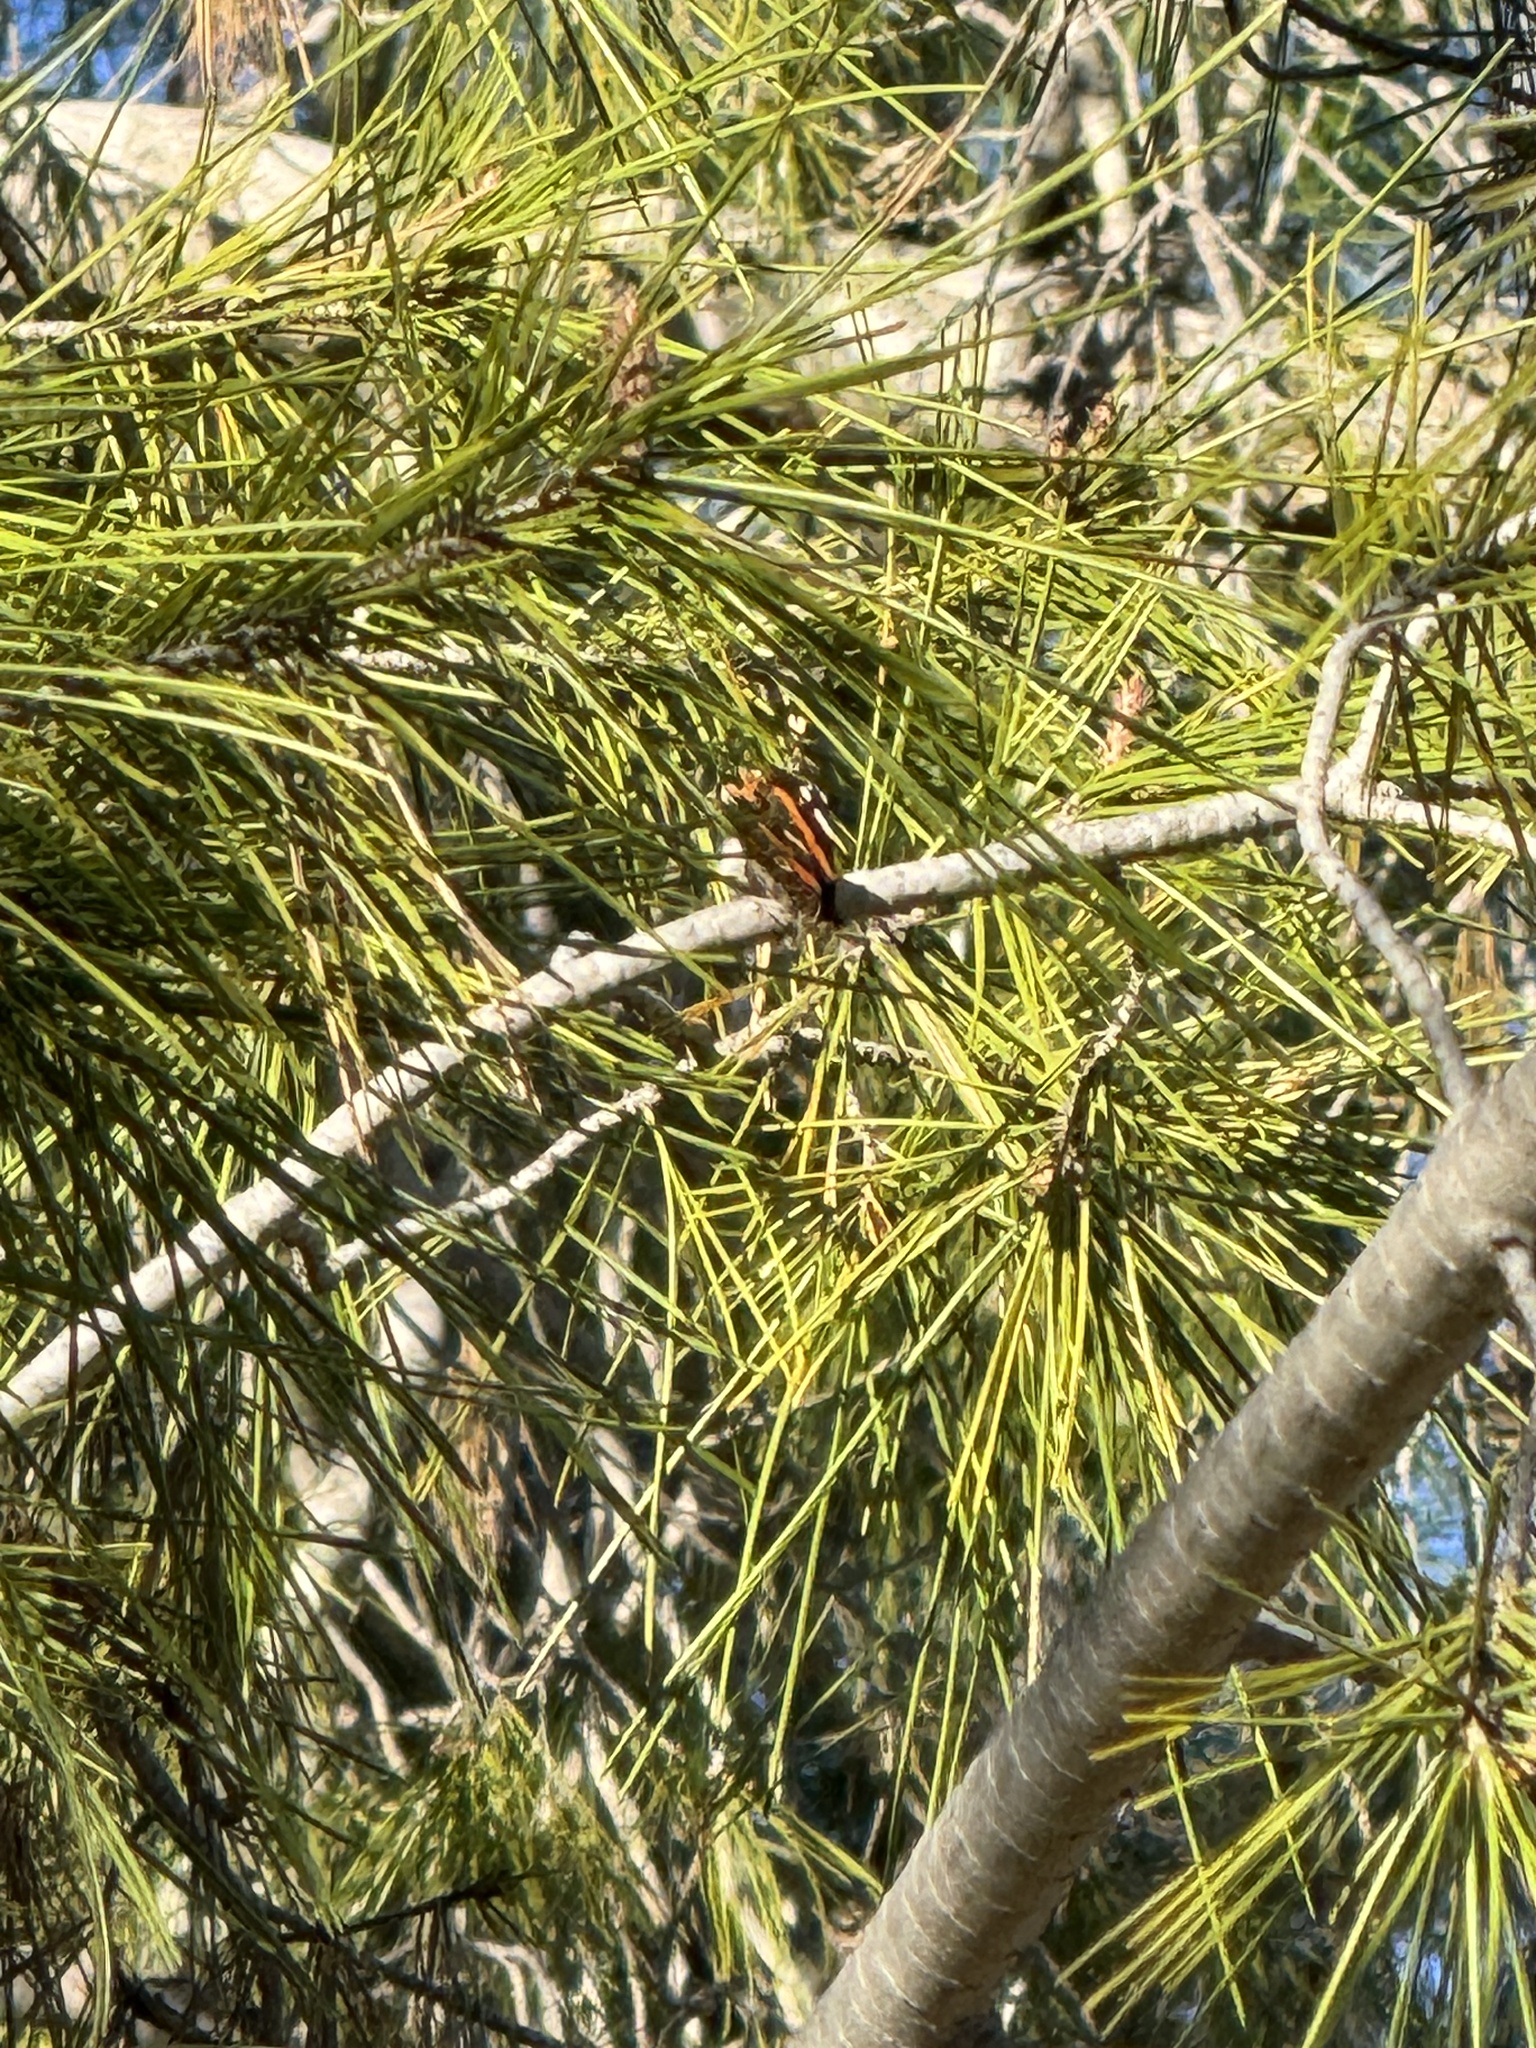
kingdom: Animalia
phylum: Arthropoda
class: Insecta
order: Lepidoptera
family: Nymphalidae
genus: Vanessa
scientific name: Vanessa atalanta
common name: Red admiral
